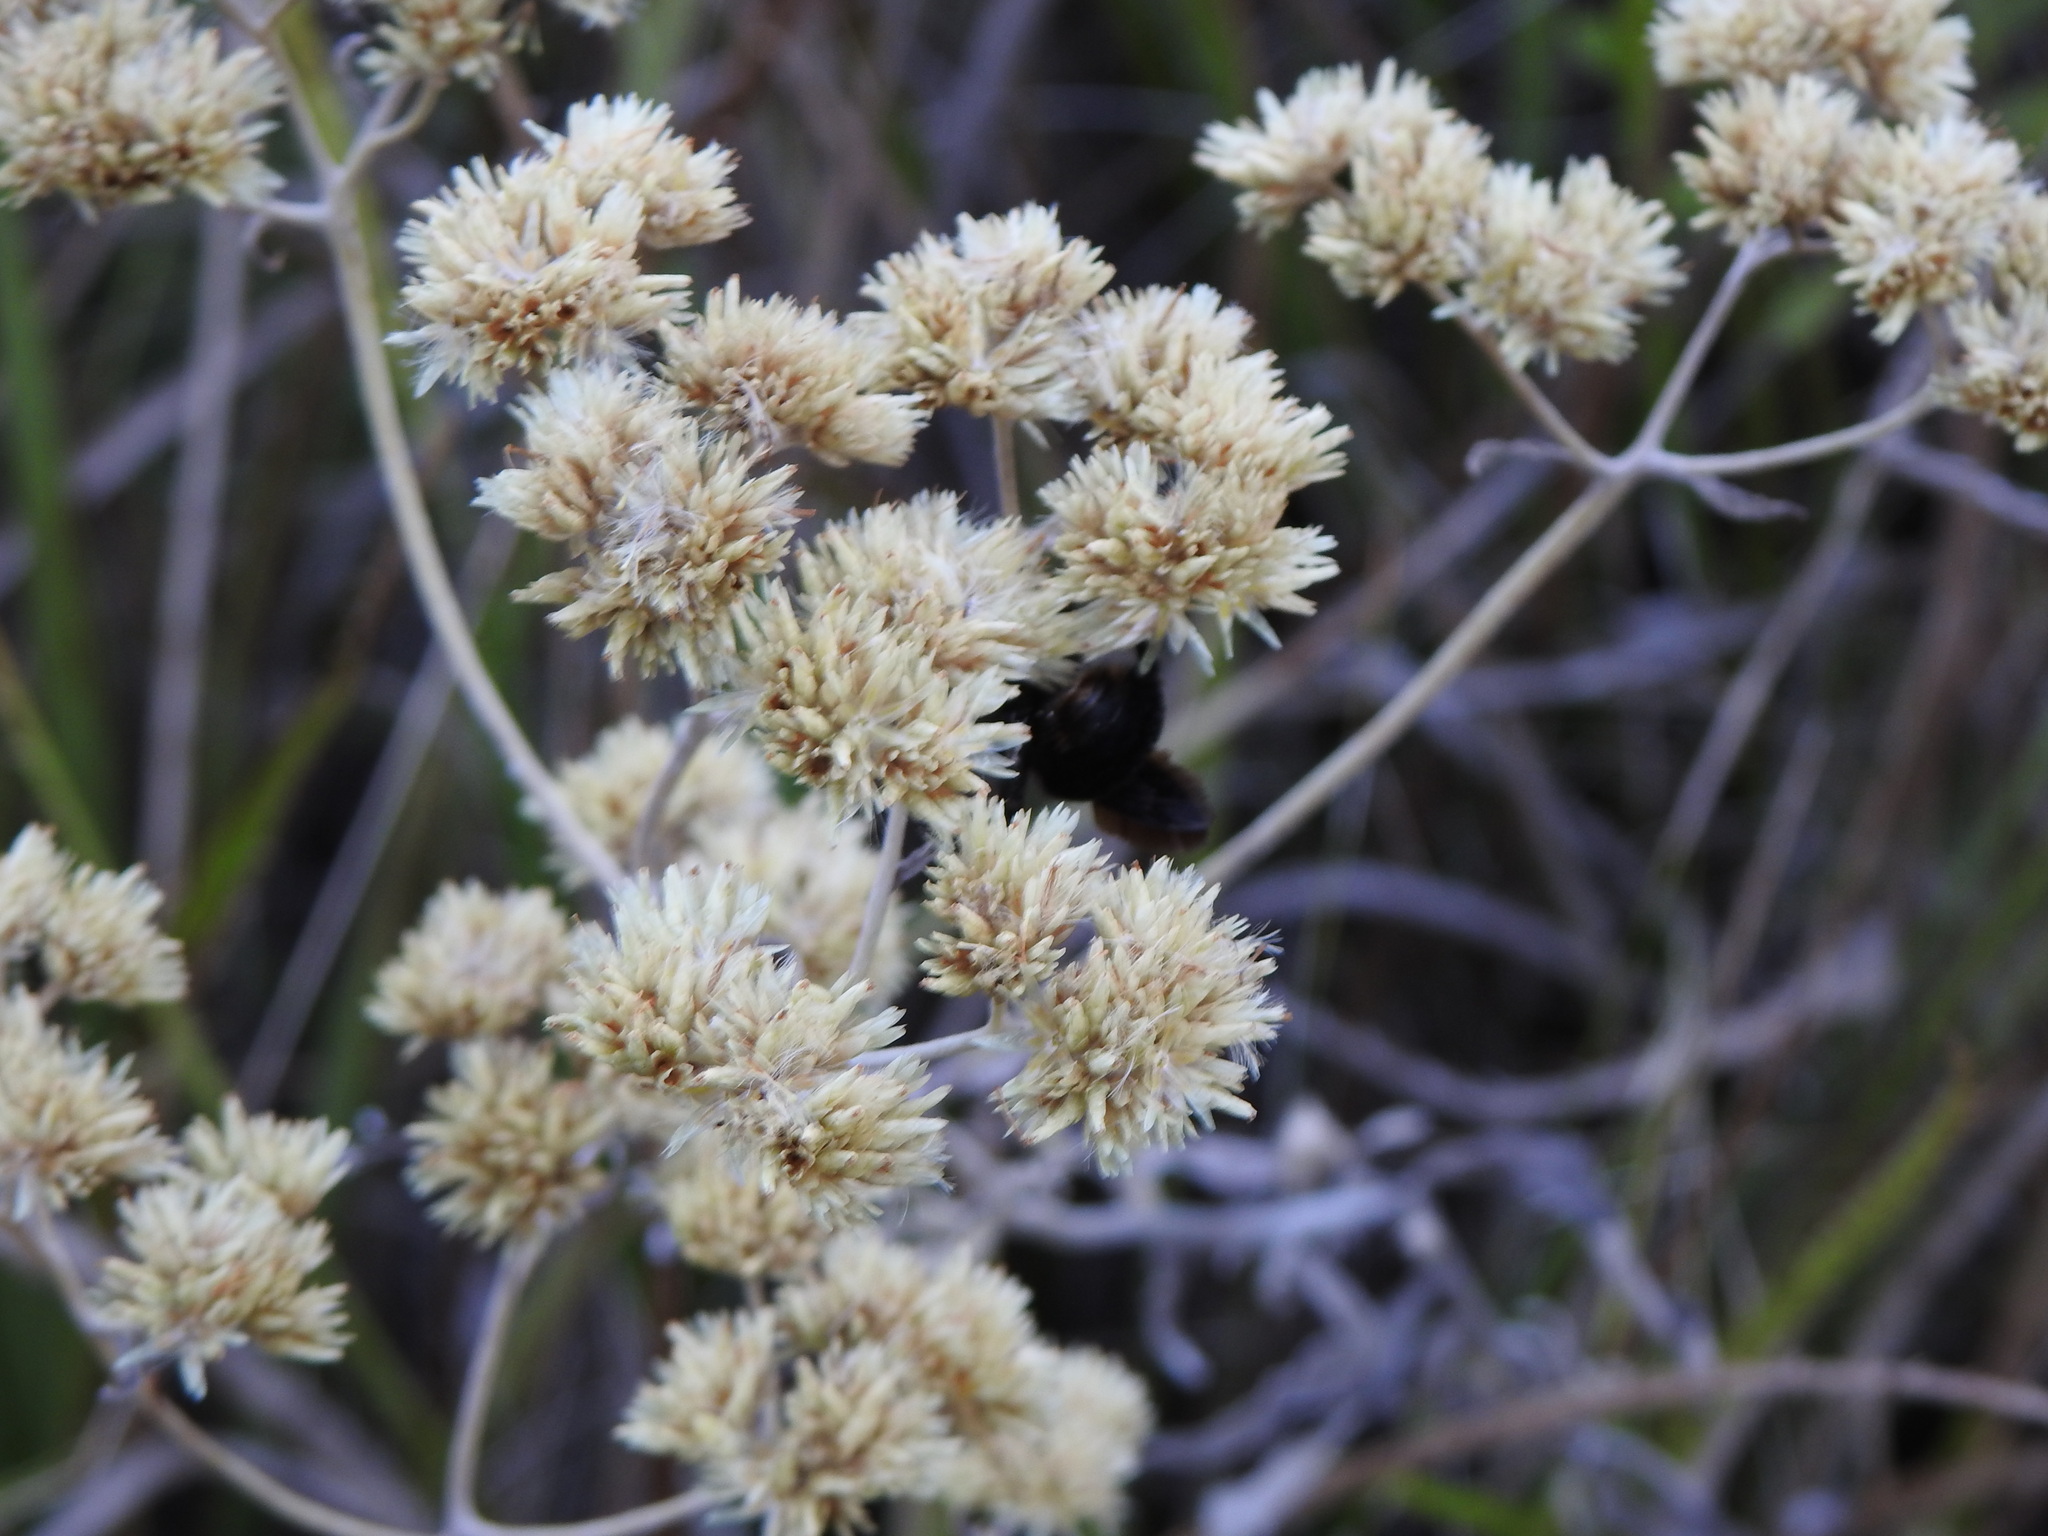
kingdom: Plantae
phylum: Tracheophyta
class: Magnoliopsida
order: Asterales
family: Asteraceae
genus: Achyrocline
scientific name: Achyrocline satureioides
